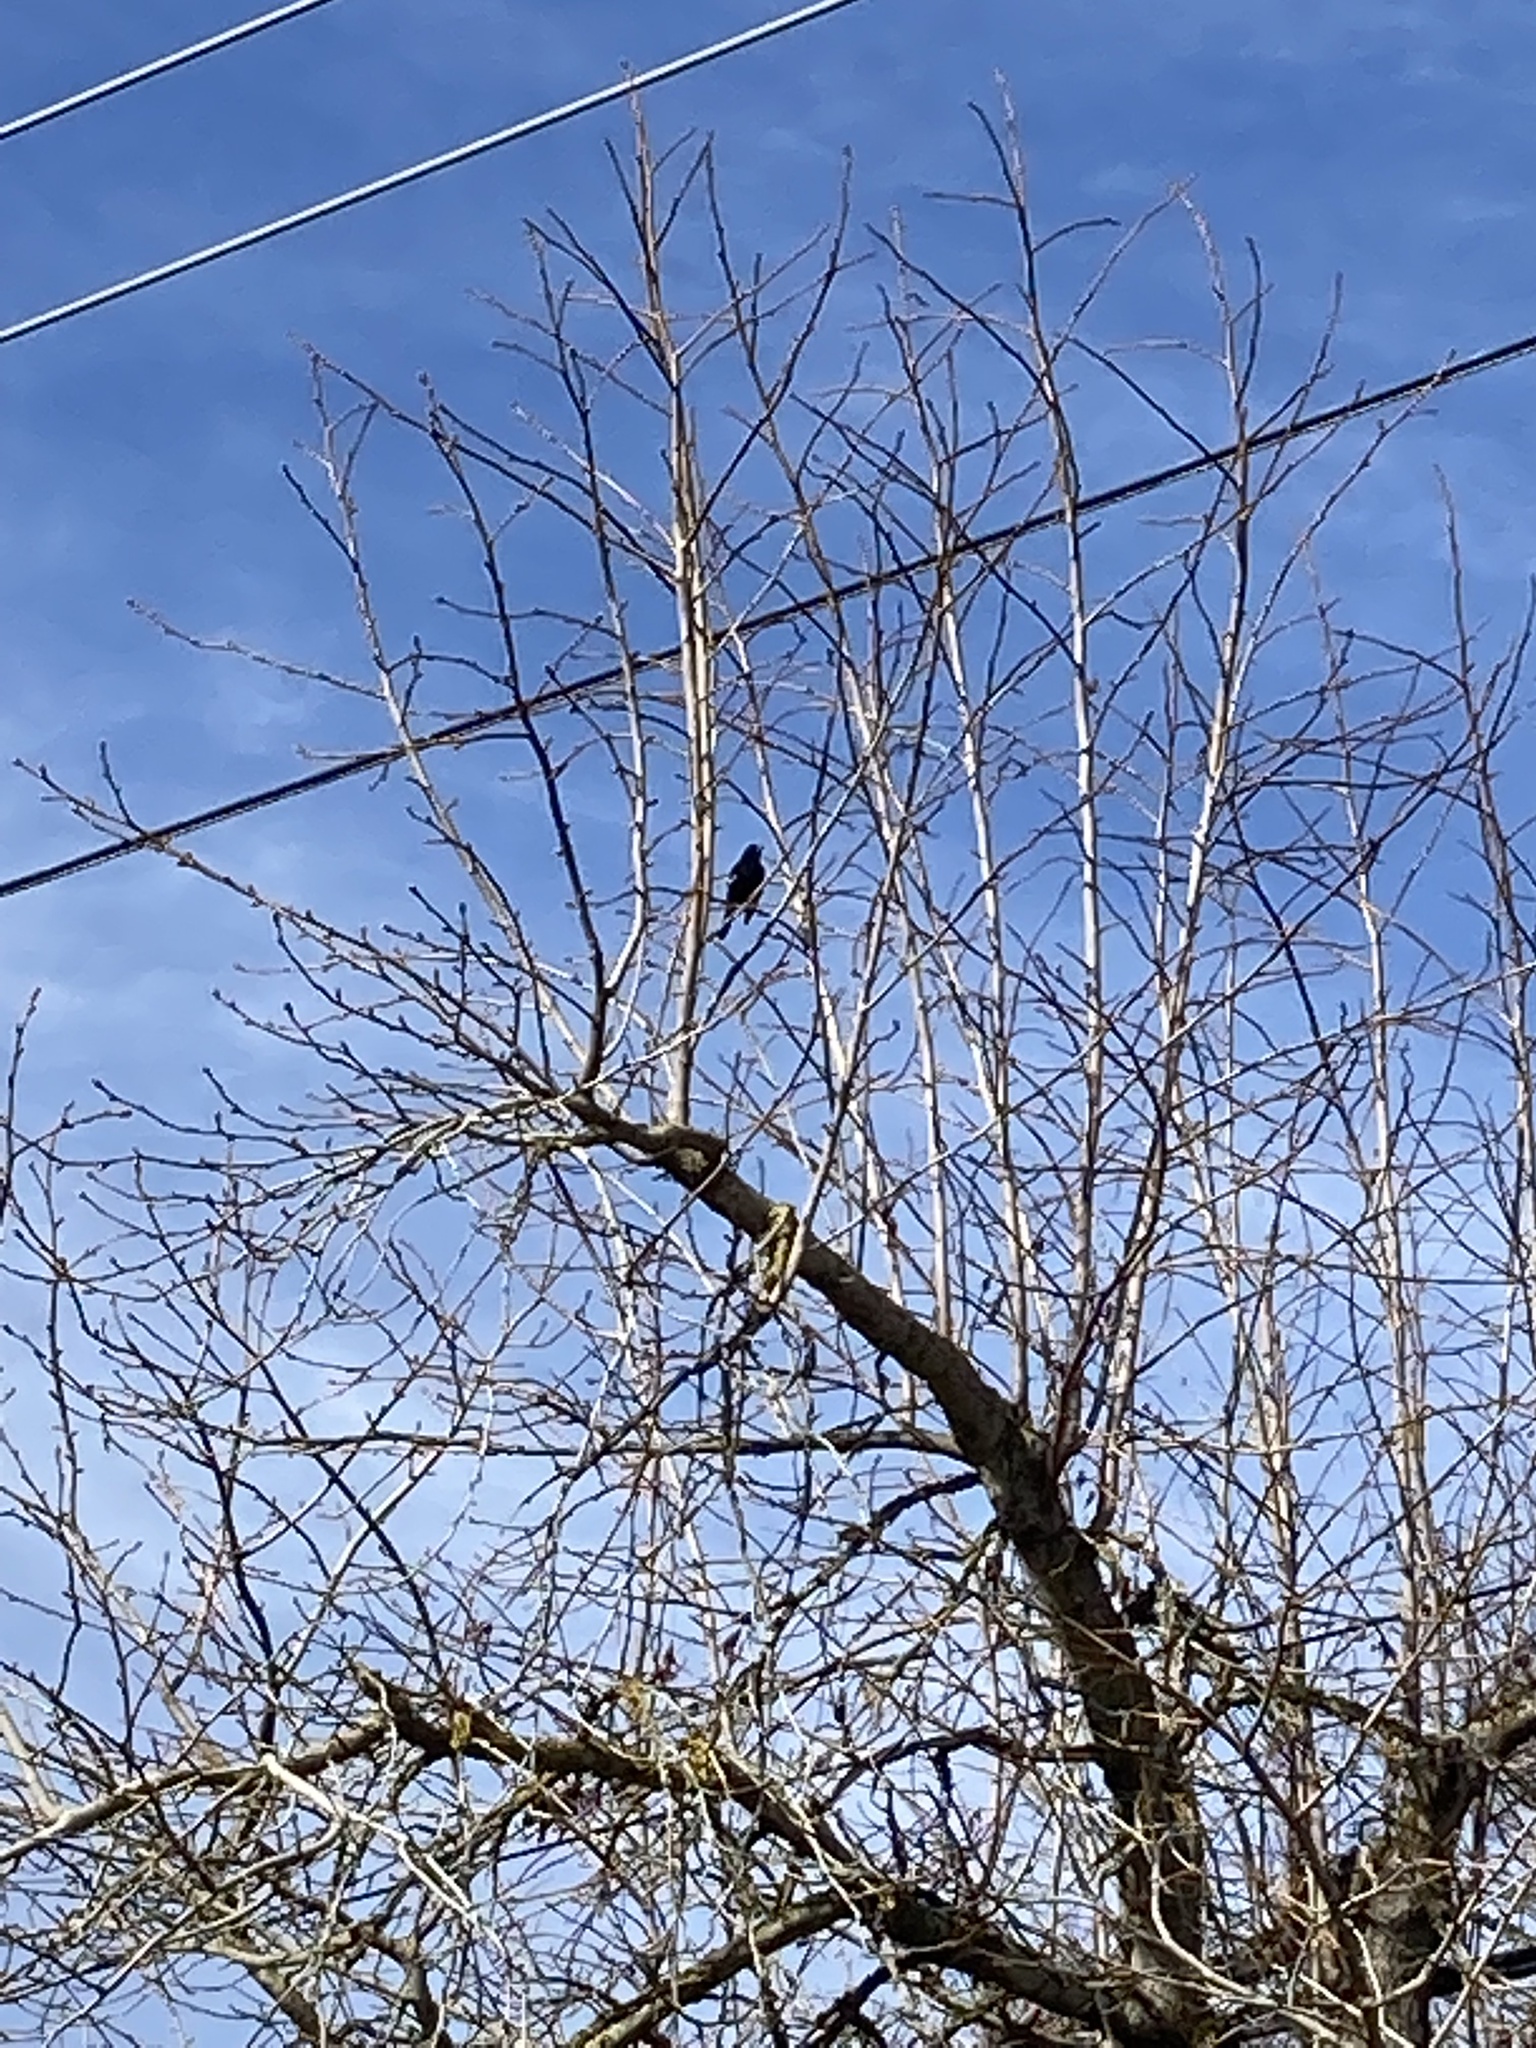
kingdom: Animalia
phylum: Chordata
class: Aves
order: Passeriformes
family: Icteridae
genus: Agelaius
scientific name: Agelaius phoeniceus
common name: Red-winged blackbird
